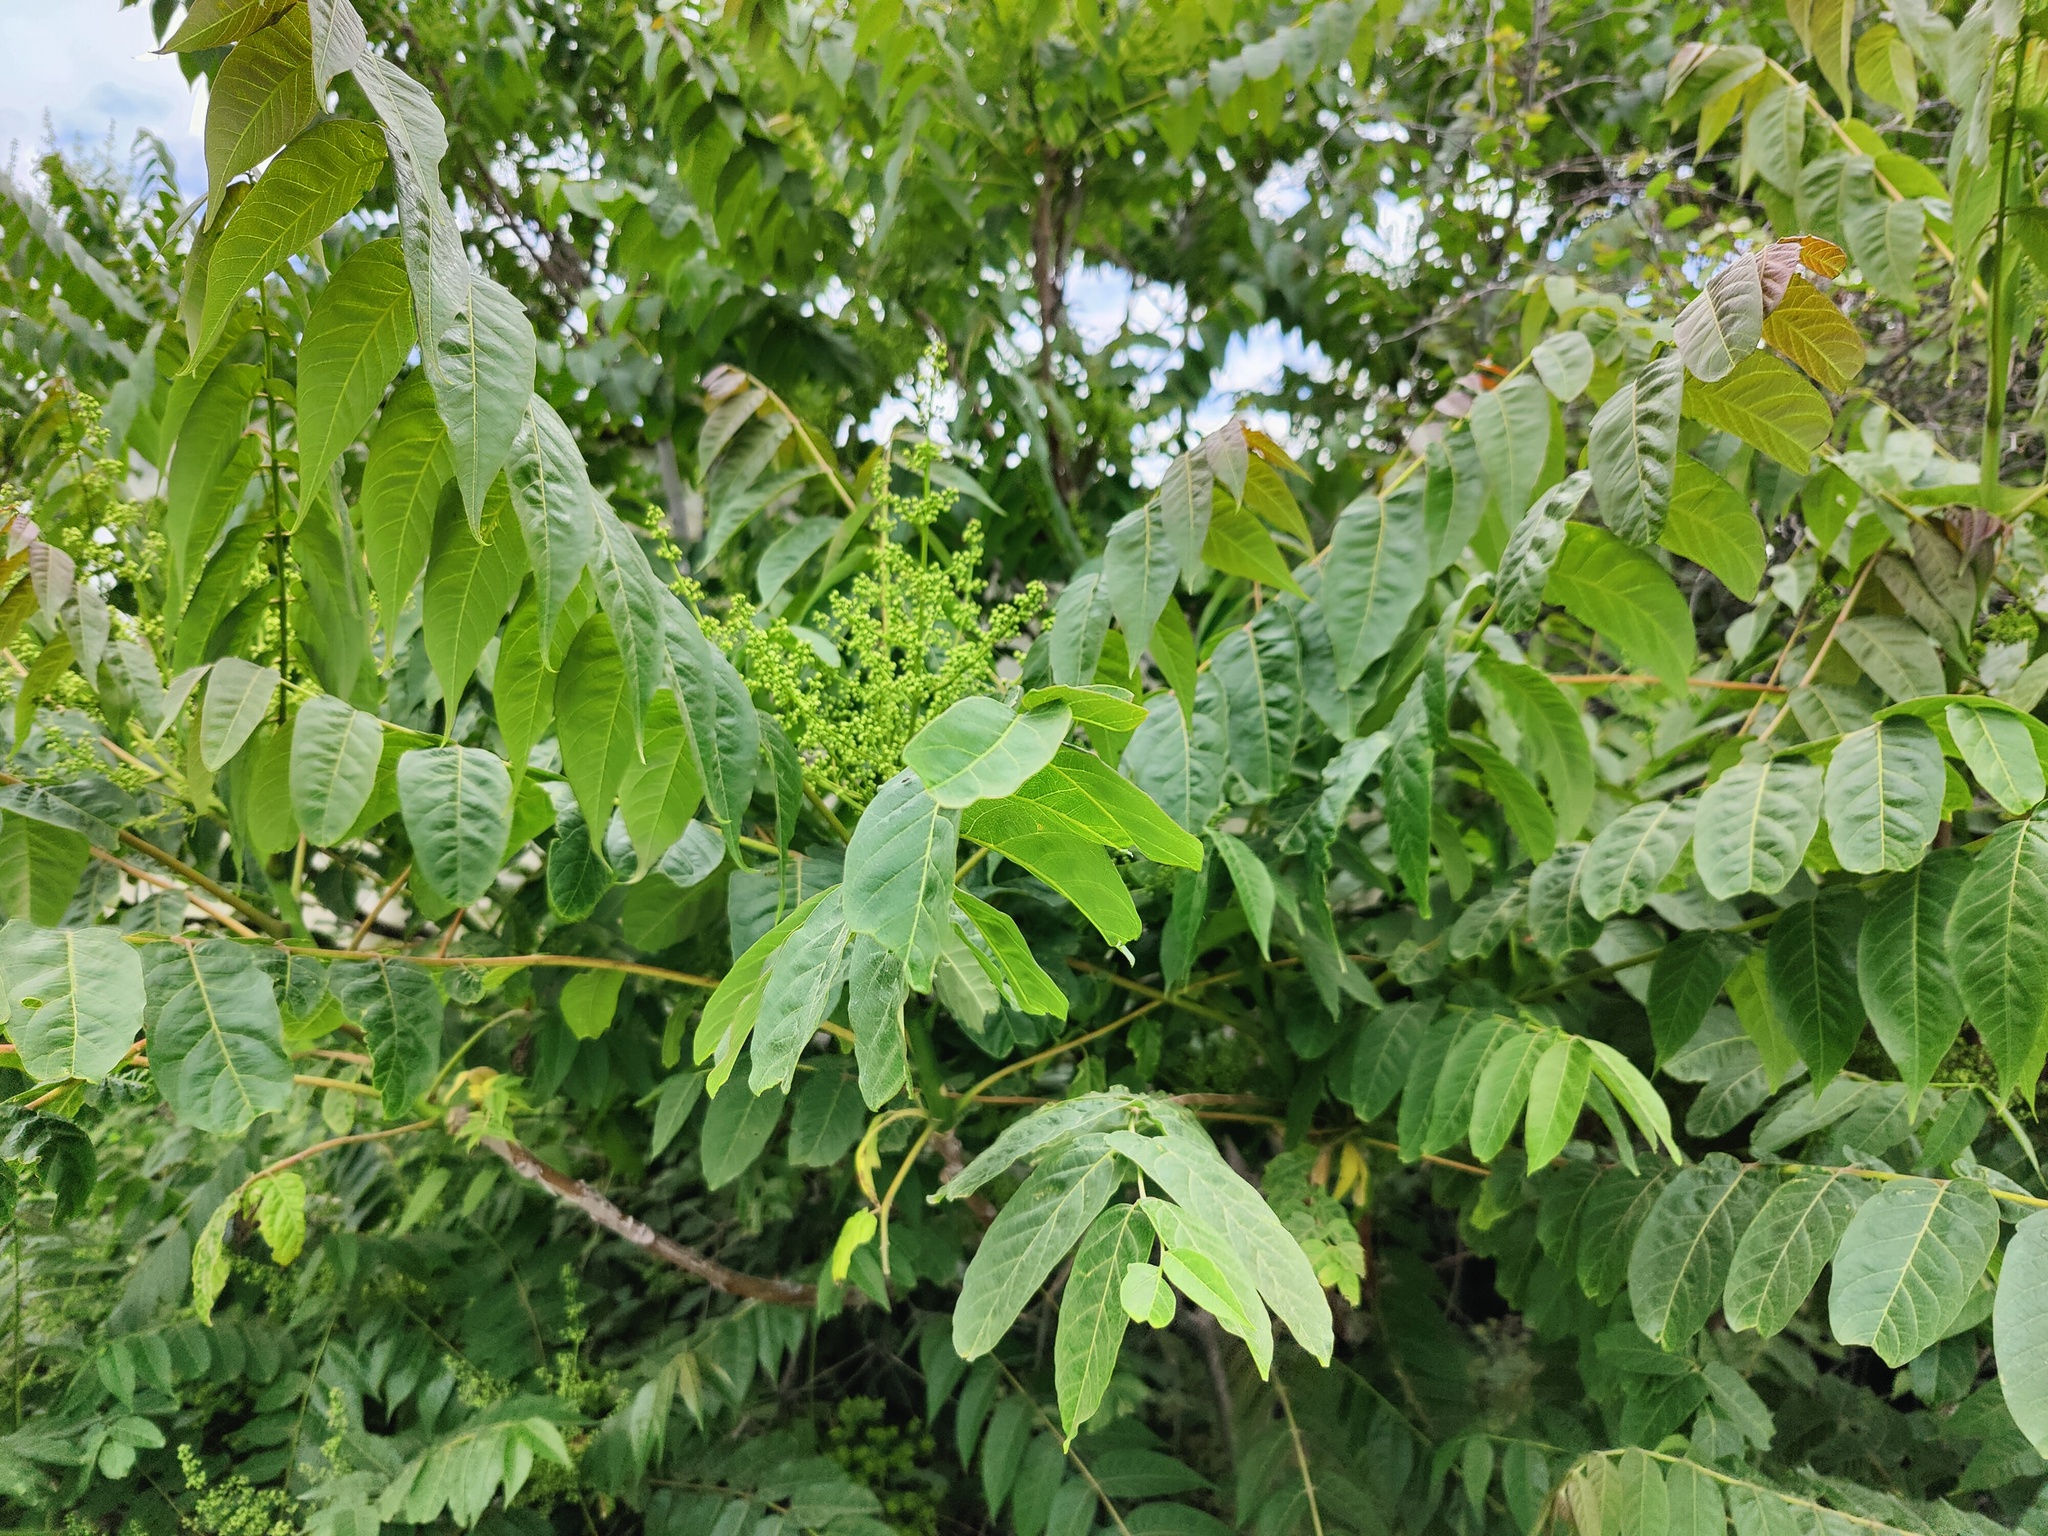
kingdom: Plantae
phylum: Tracheophyta
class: Magnoliopsida
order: Sapindales
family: Simaroubaceae
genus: Ailanthus
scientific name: Ailanthus altissima
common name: Tree-of-heaven
